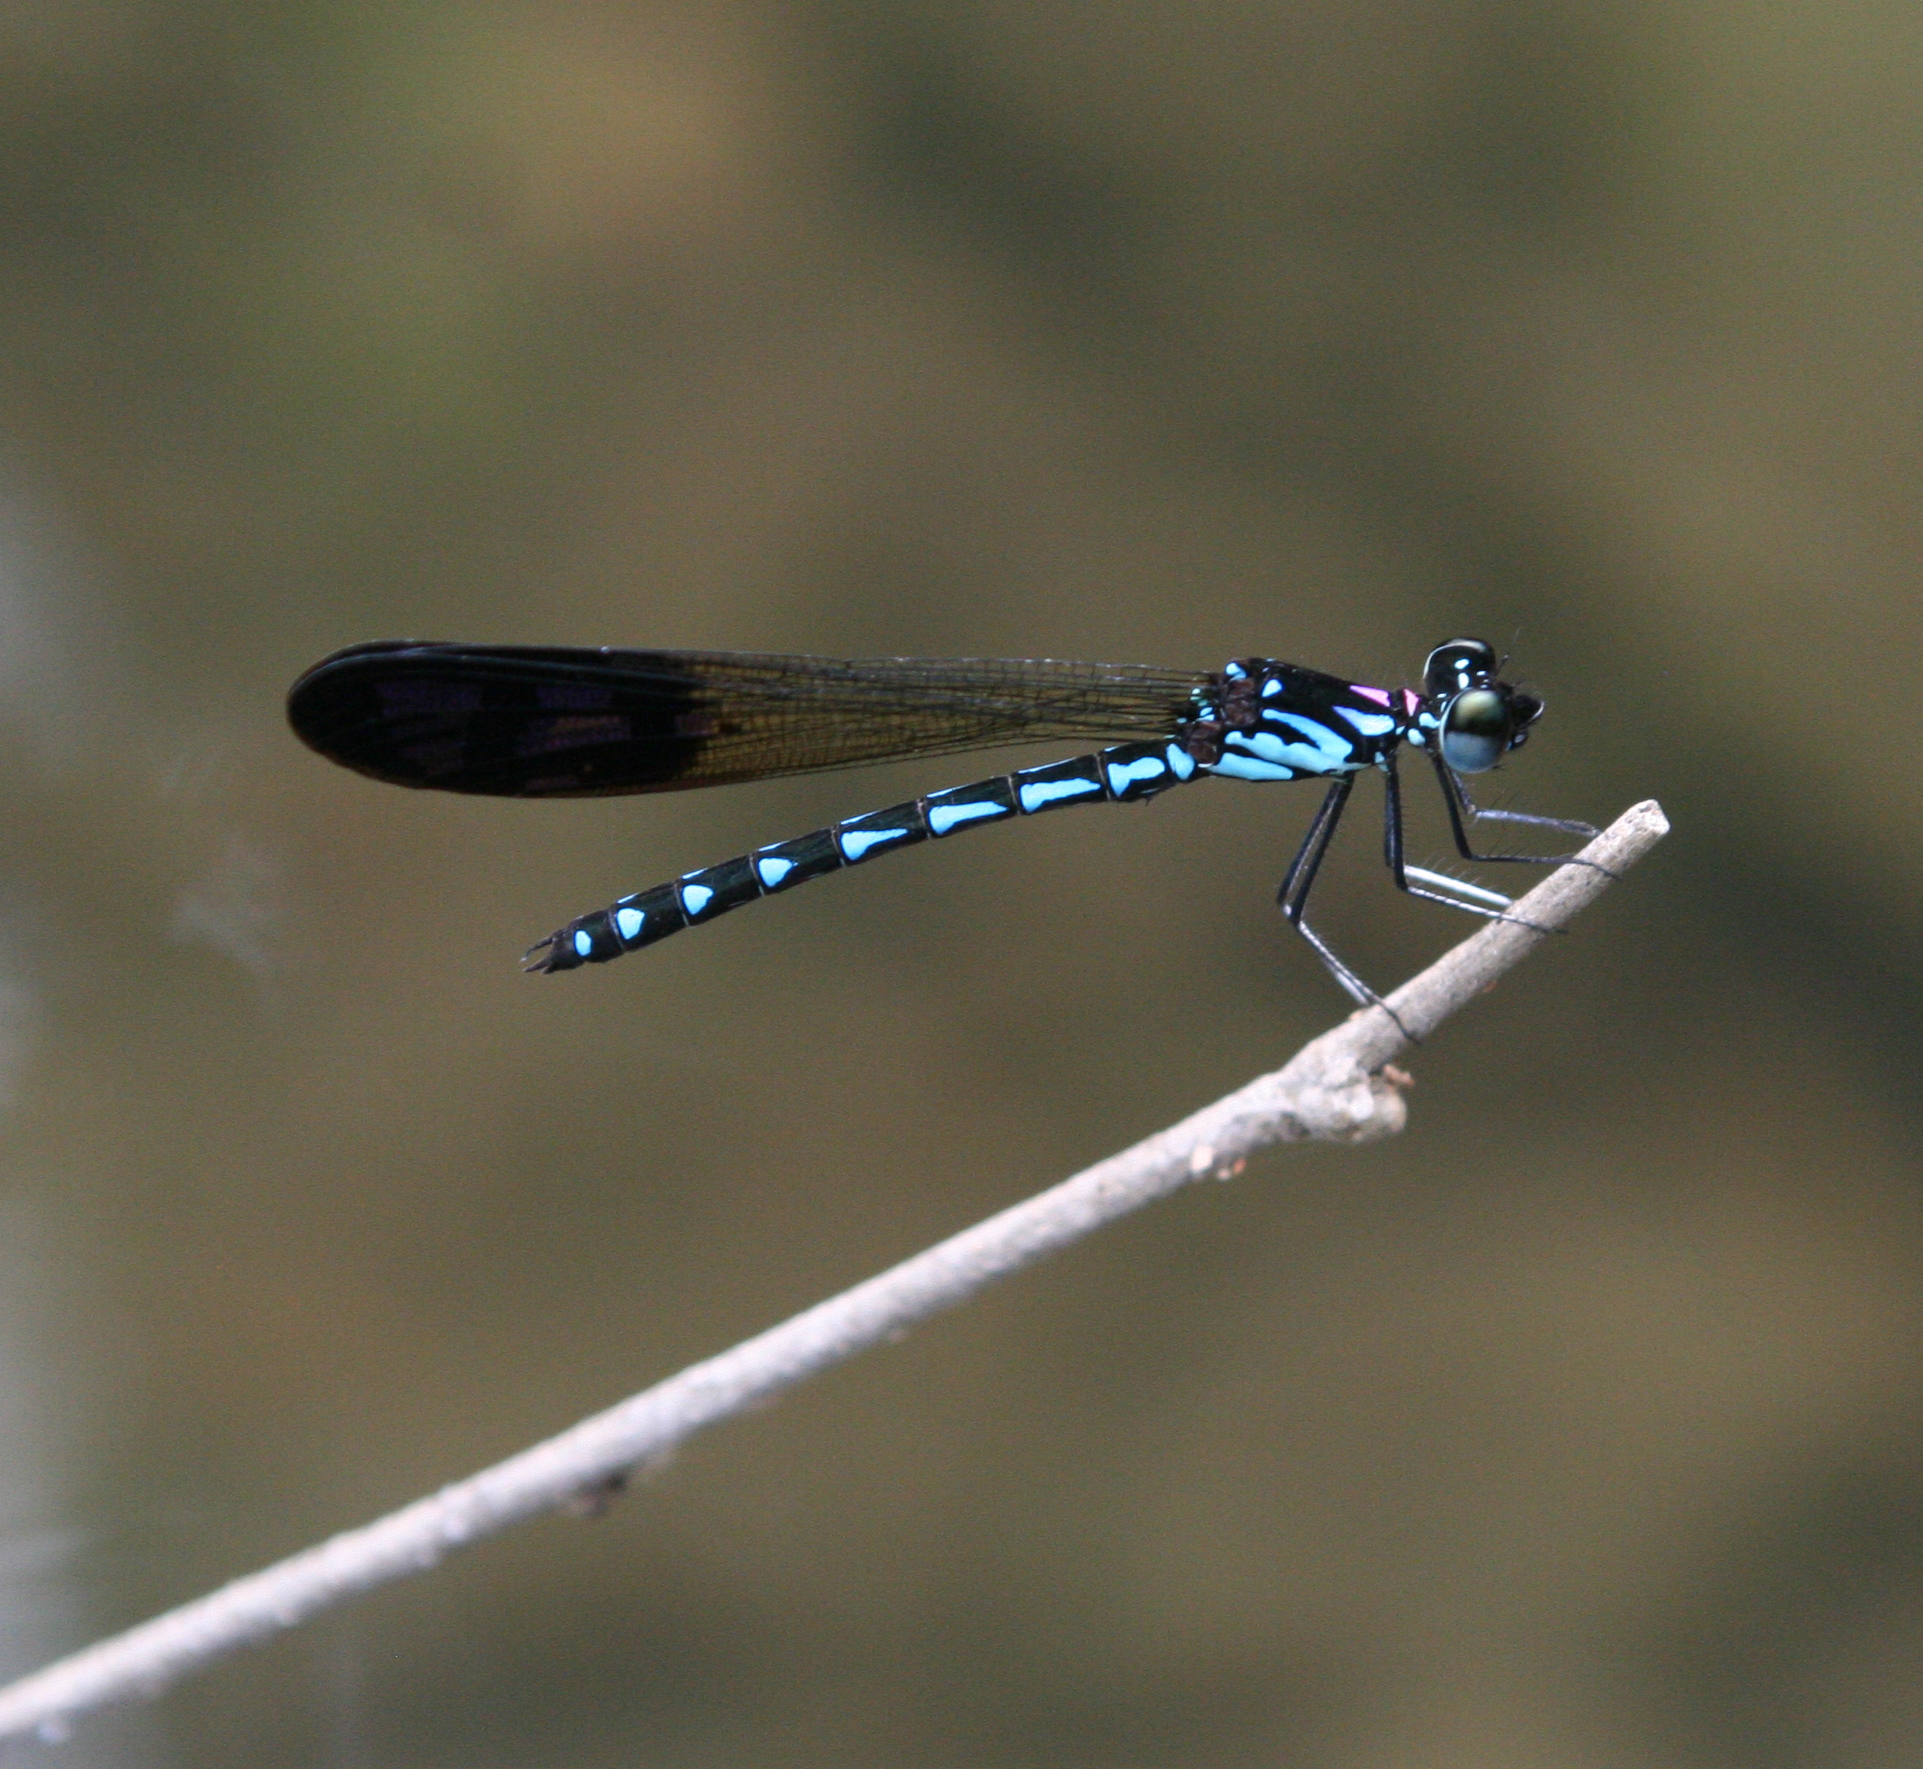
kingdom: Animalia
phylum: Arthropoda
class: Insecta
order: Odonata
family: Chlorocyphidae
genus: Heliocypha
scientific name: Heliocypha perforata
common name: Common blue jewel
